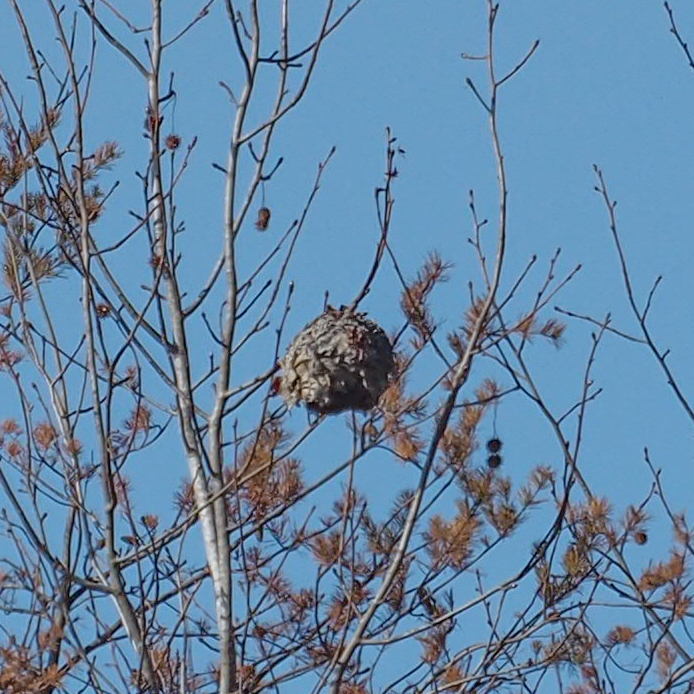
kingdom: Animalia
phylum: Arthropoda
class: Insecta
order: Hymenoptera
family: Vespidae
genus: Dolichovespula
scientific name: Dolichovespula maculata
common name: Bald-faced hornet
